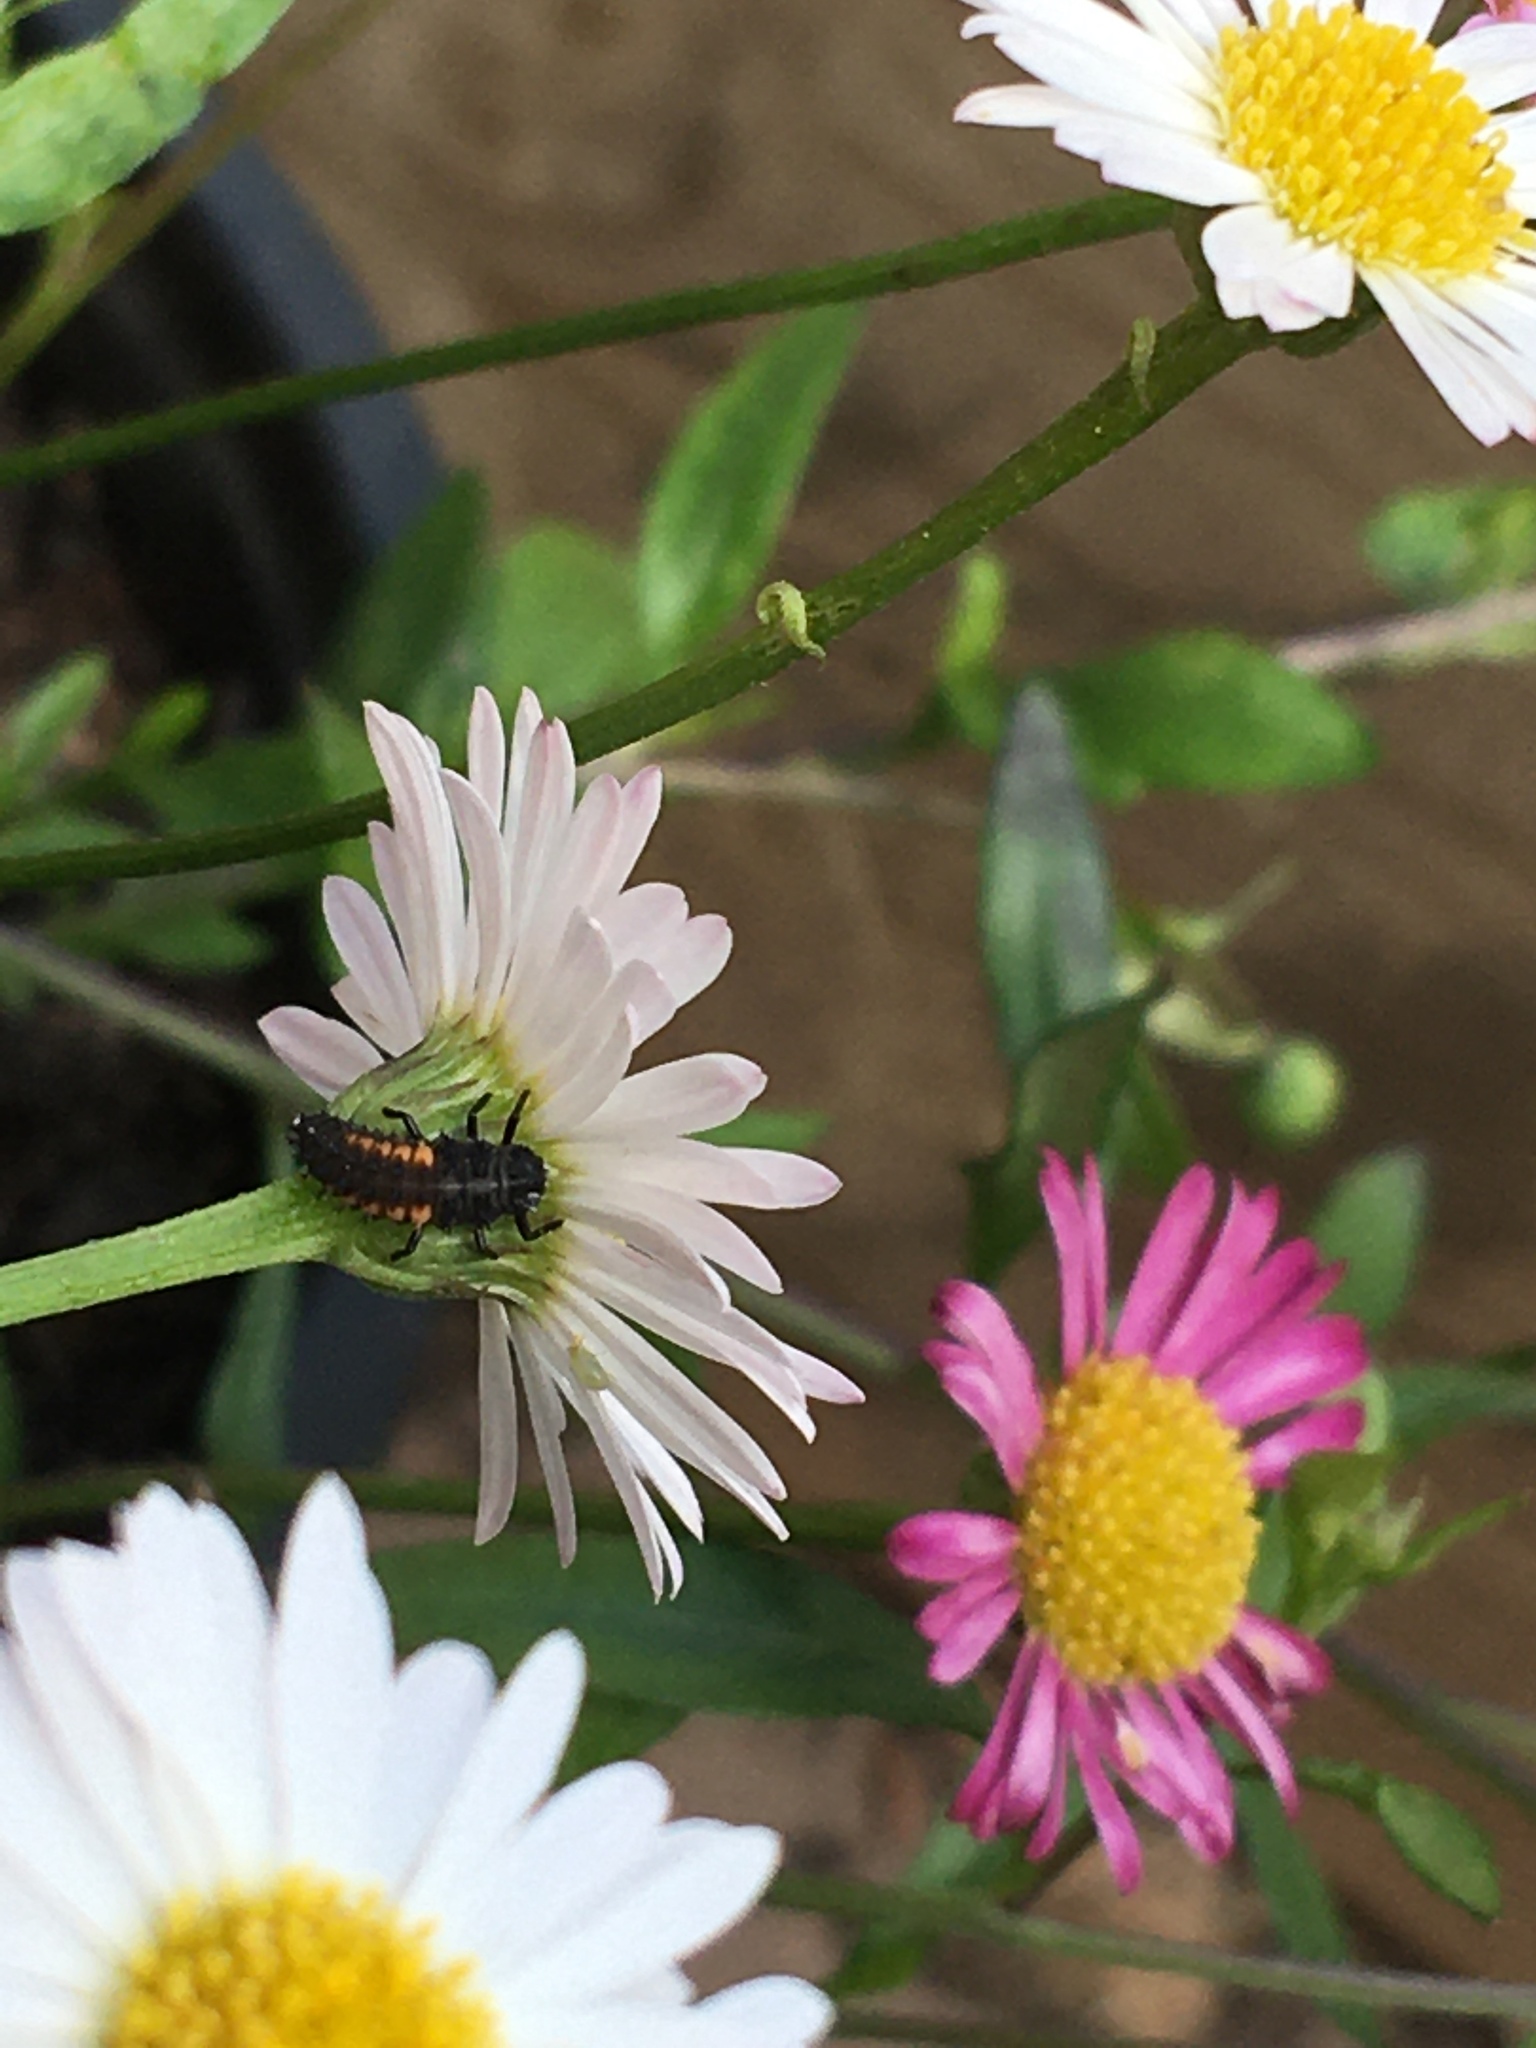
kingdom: Animalia
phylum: Arthropoda
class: Insecta
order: Coleoptera
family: Coccinellidae
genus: Harmonia
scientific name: Harmonia axyridis
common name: Harlequin ladybird
